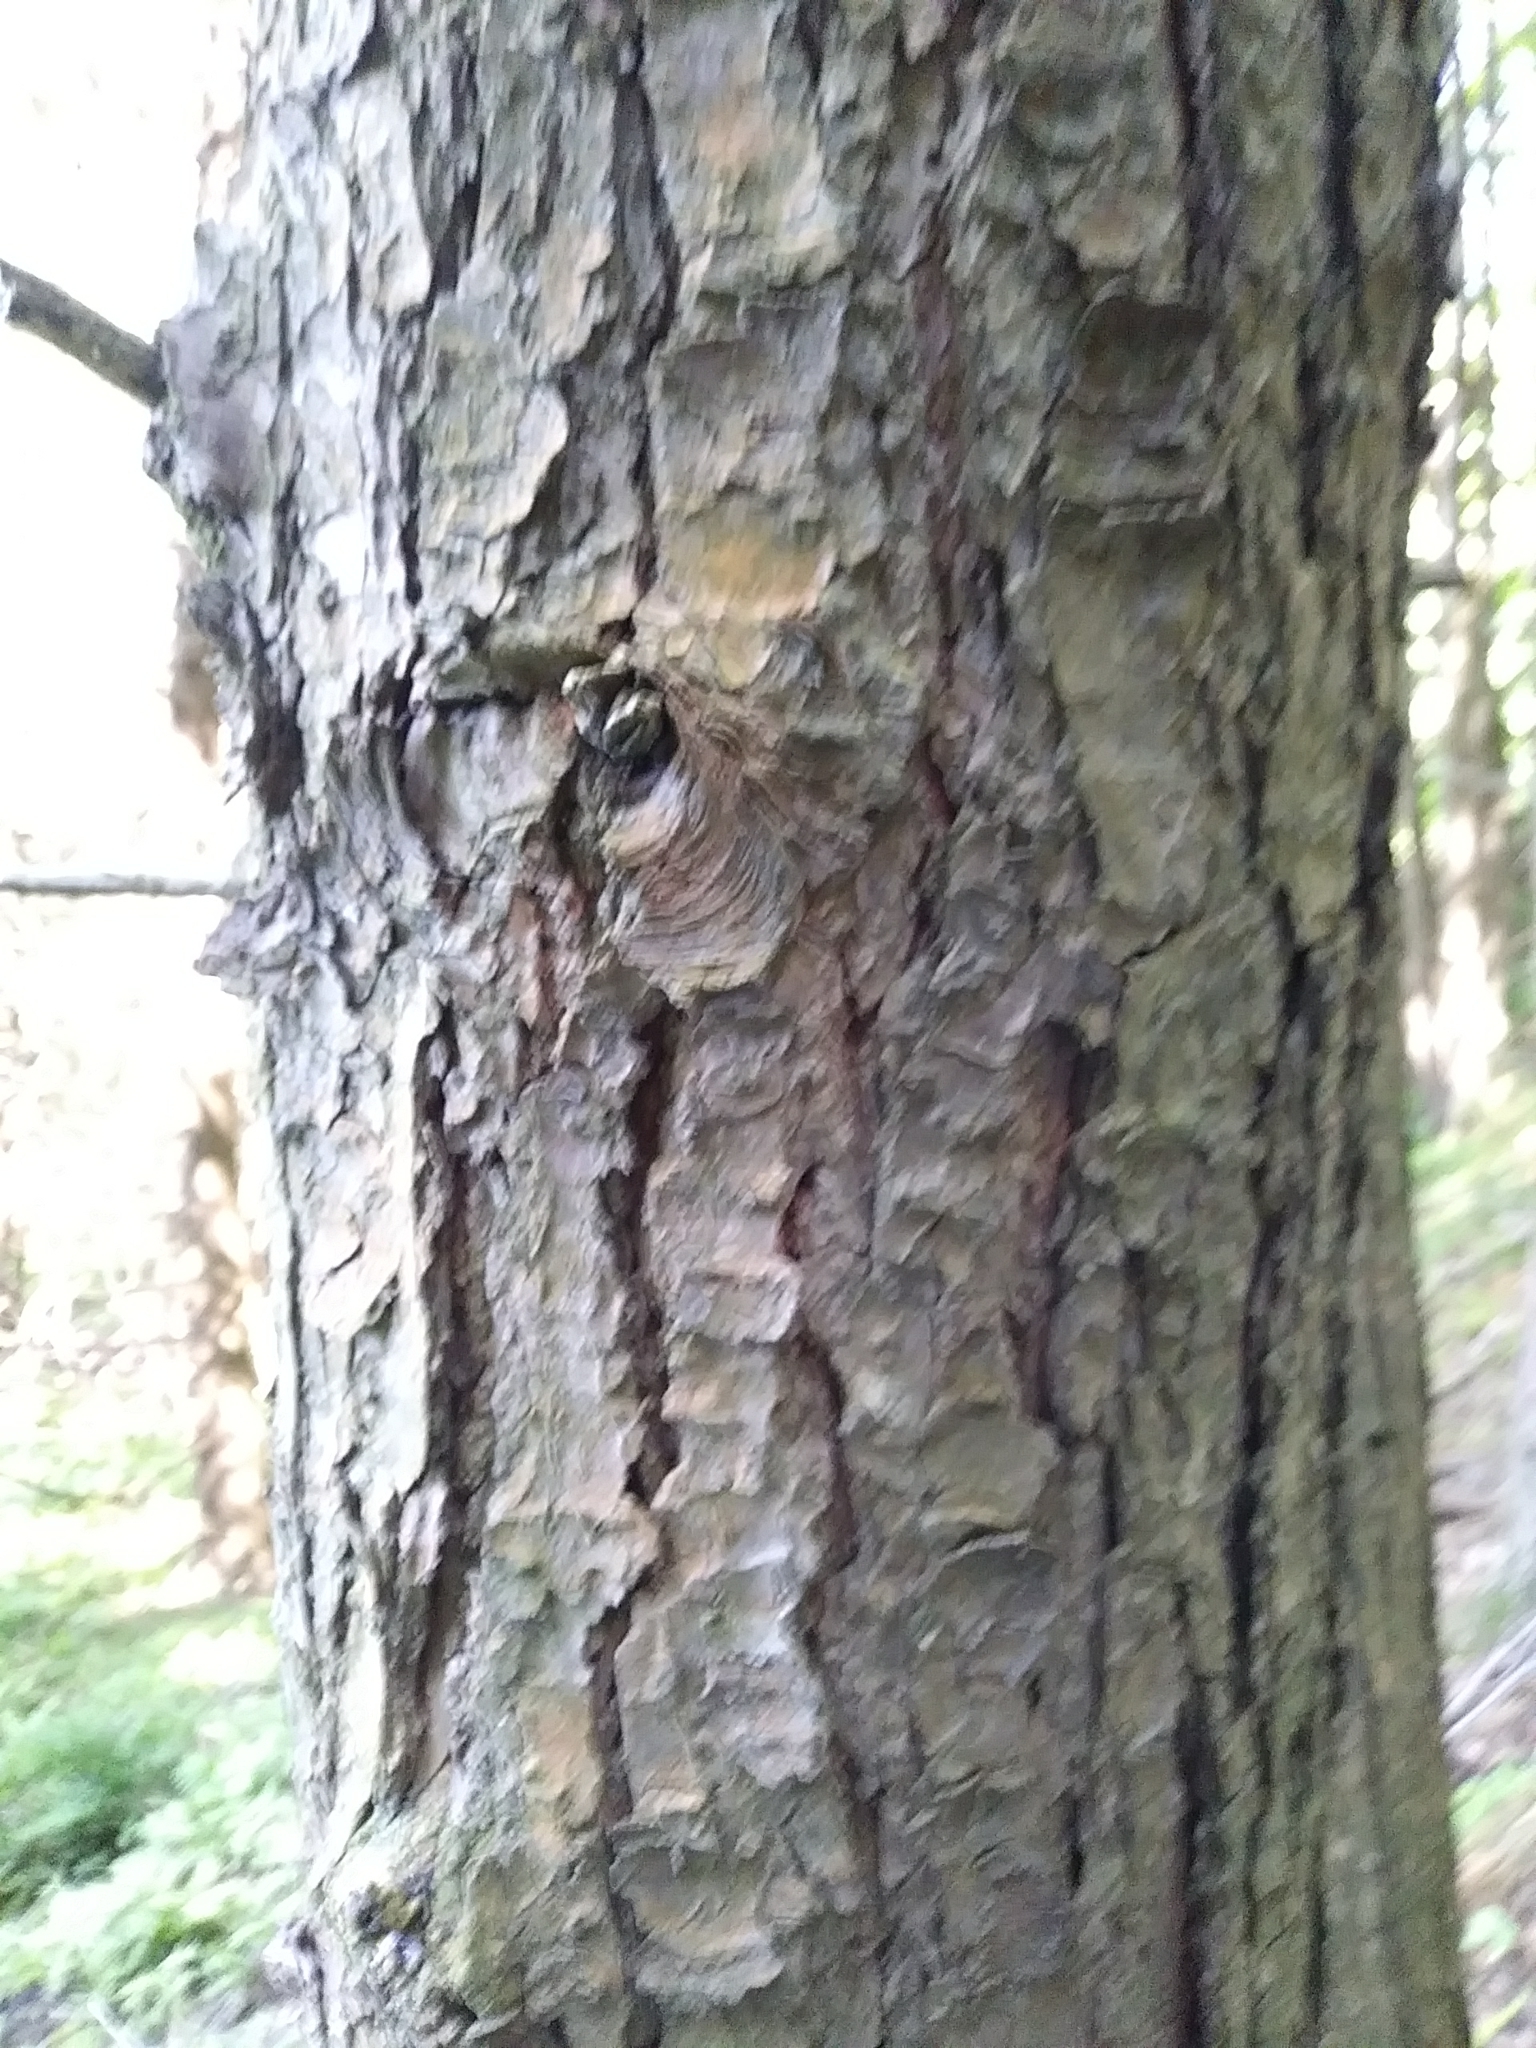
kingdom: Plantae
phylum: Tracheophyta
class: Pinopsida
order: Pinales
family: Pinaceae
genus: Tsuga
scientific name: Tsuga canadensis
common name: Eastern hemlock
